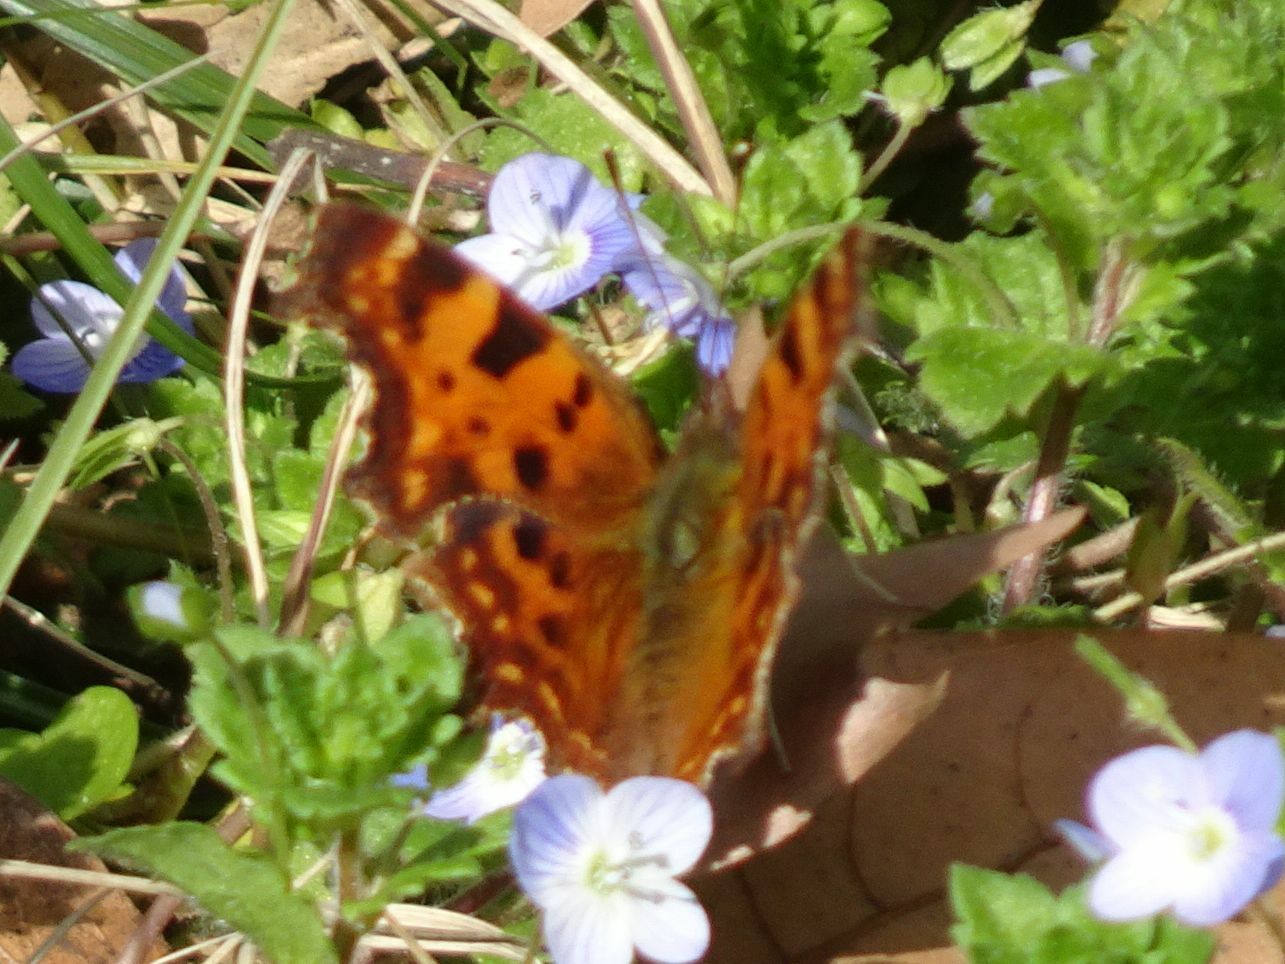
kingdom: Animalia
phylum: Arthropoda
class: Insecta
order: Lepidoptera
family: Nymphalidae
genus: Polygonia
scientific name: Polygonia c-album
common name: Comma
